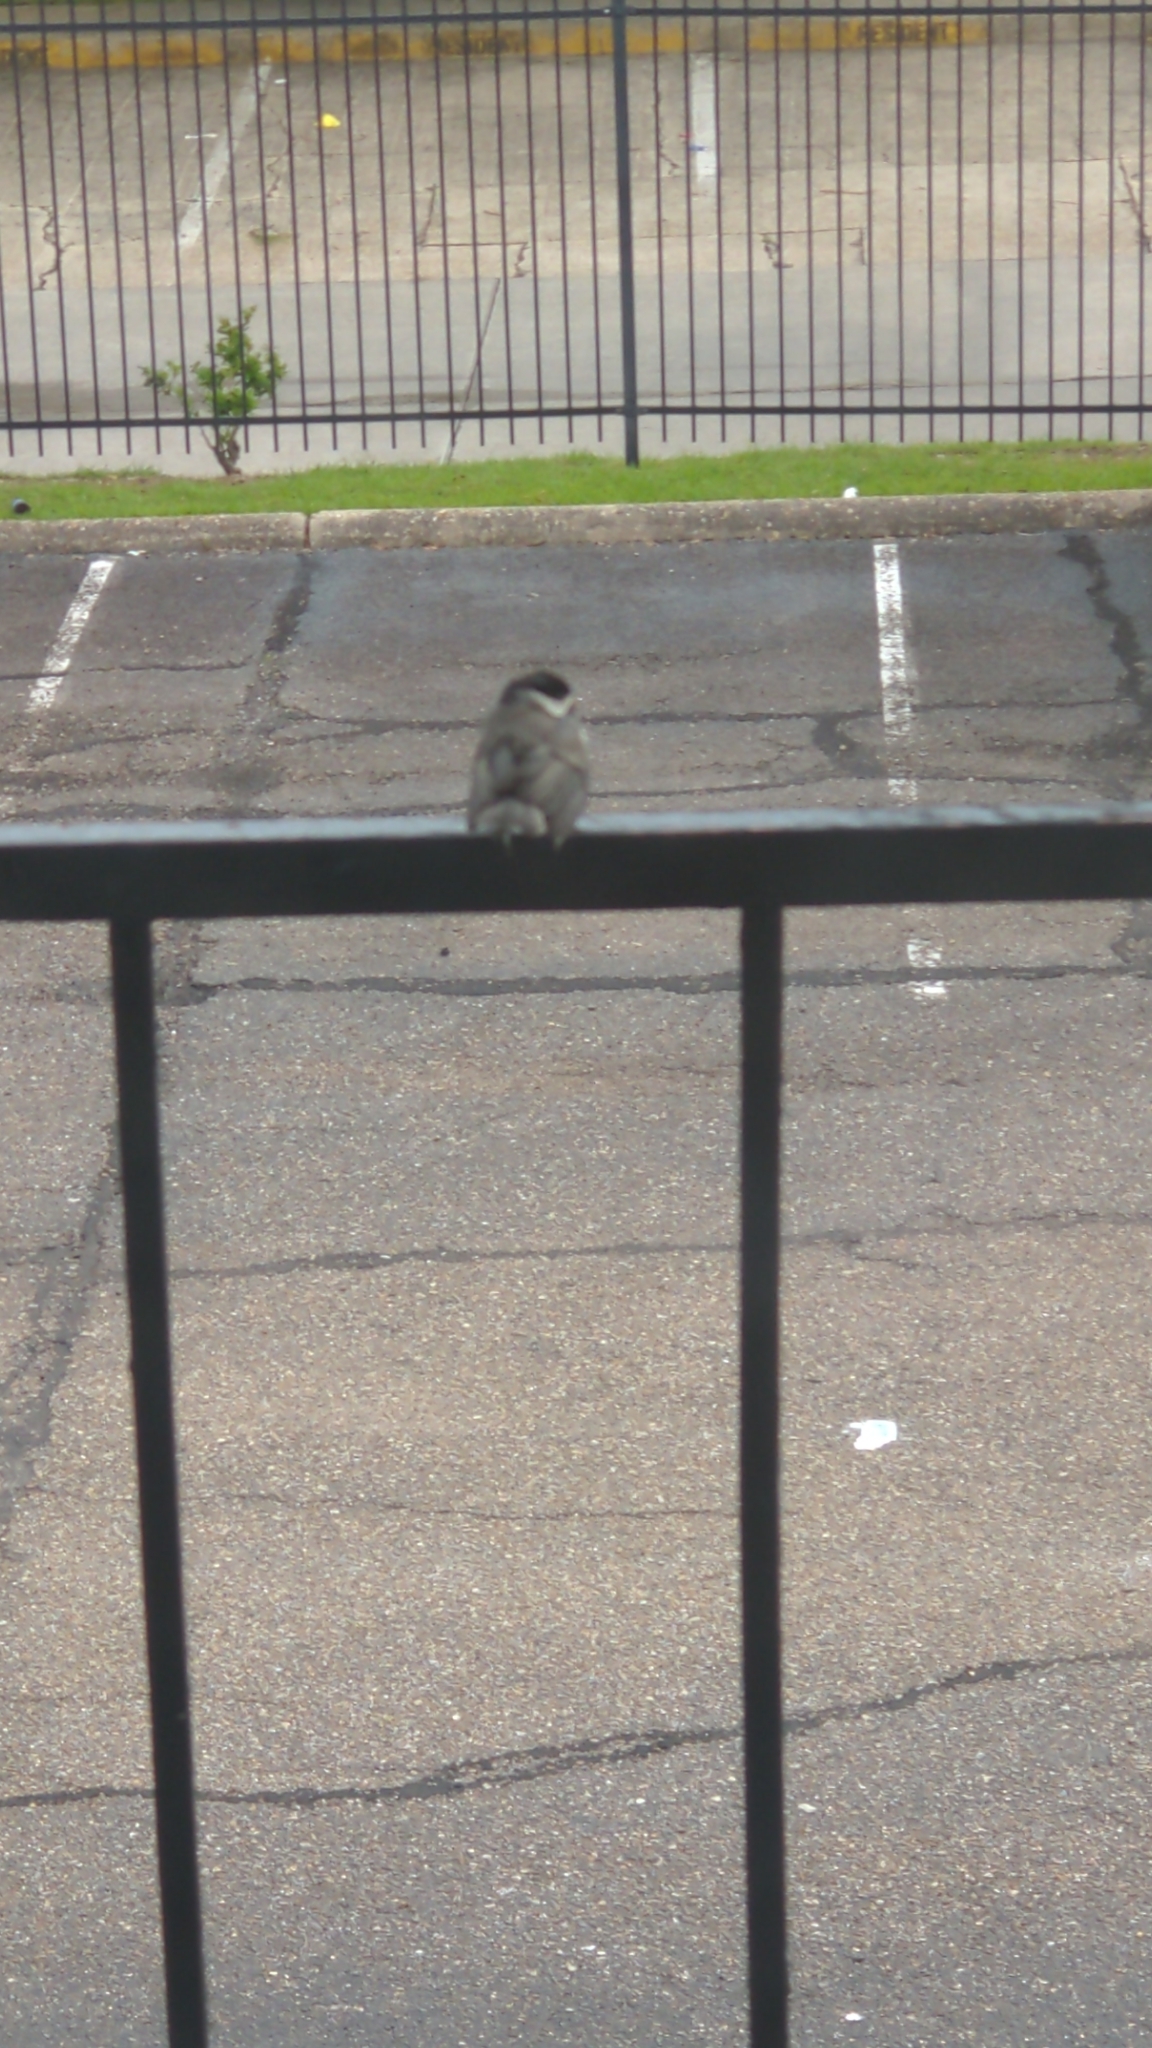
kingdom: Animalia
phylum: Chordata
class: Aves
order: Passeriformes
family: Paridae
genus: Poecile
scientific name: Poecile carolinensis
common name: Carolina chickadee
